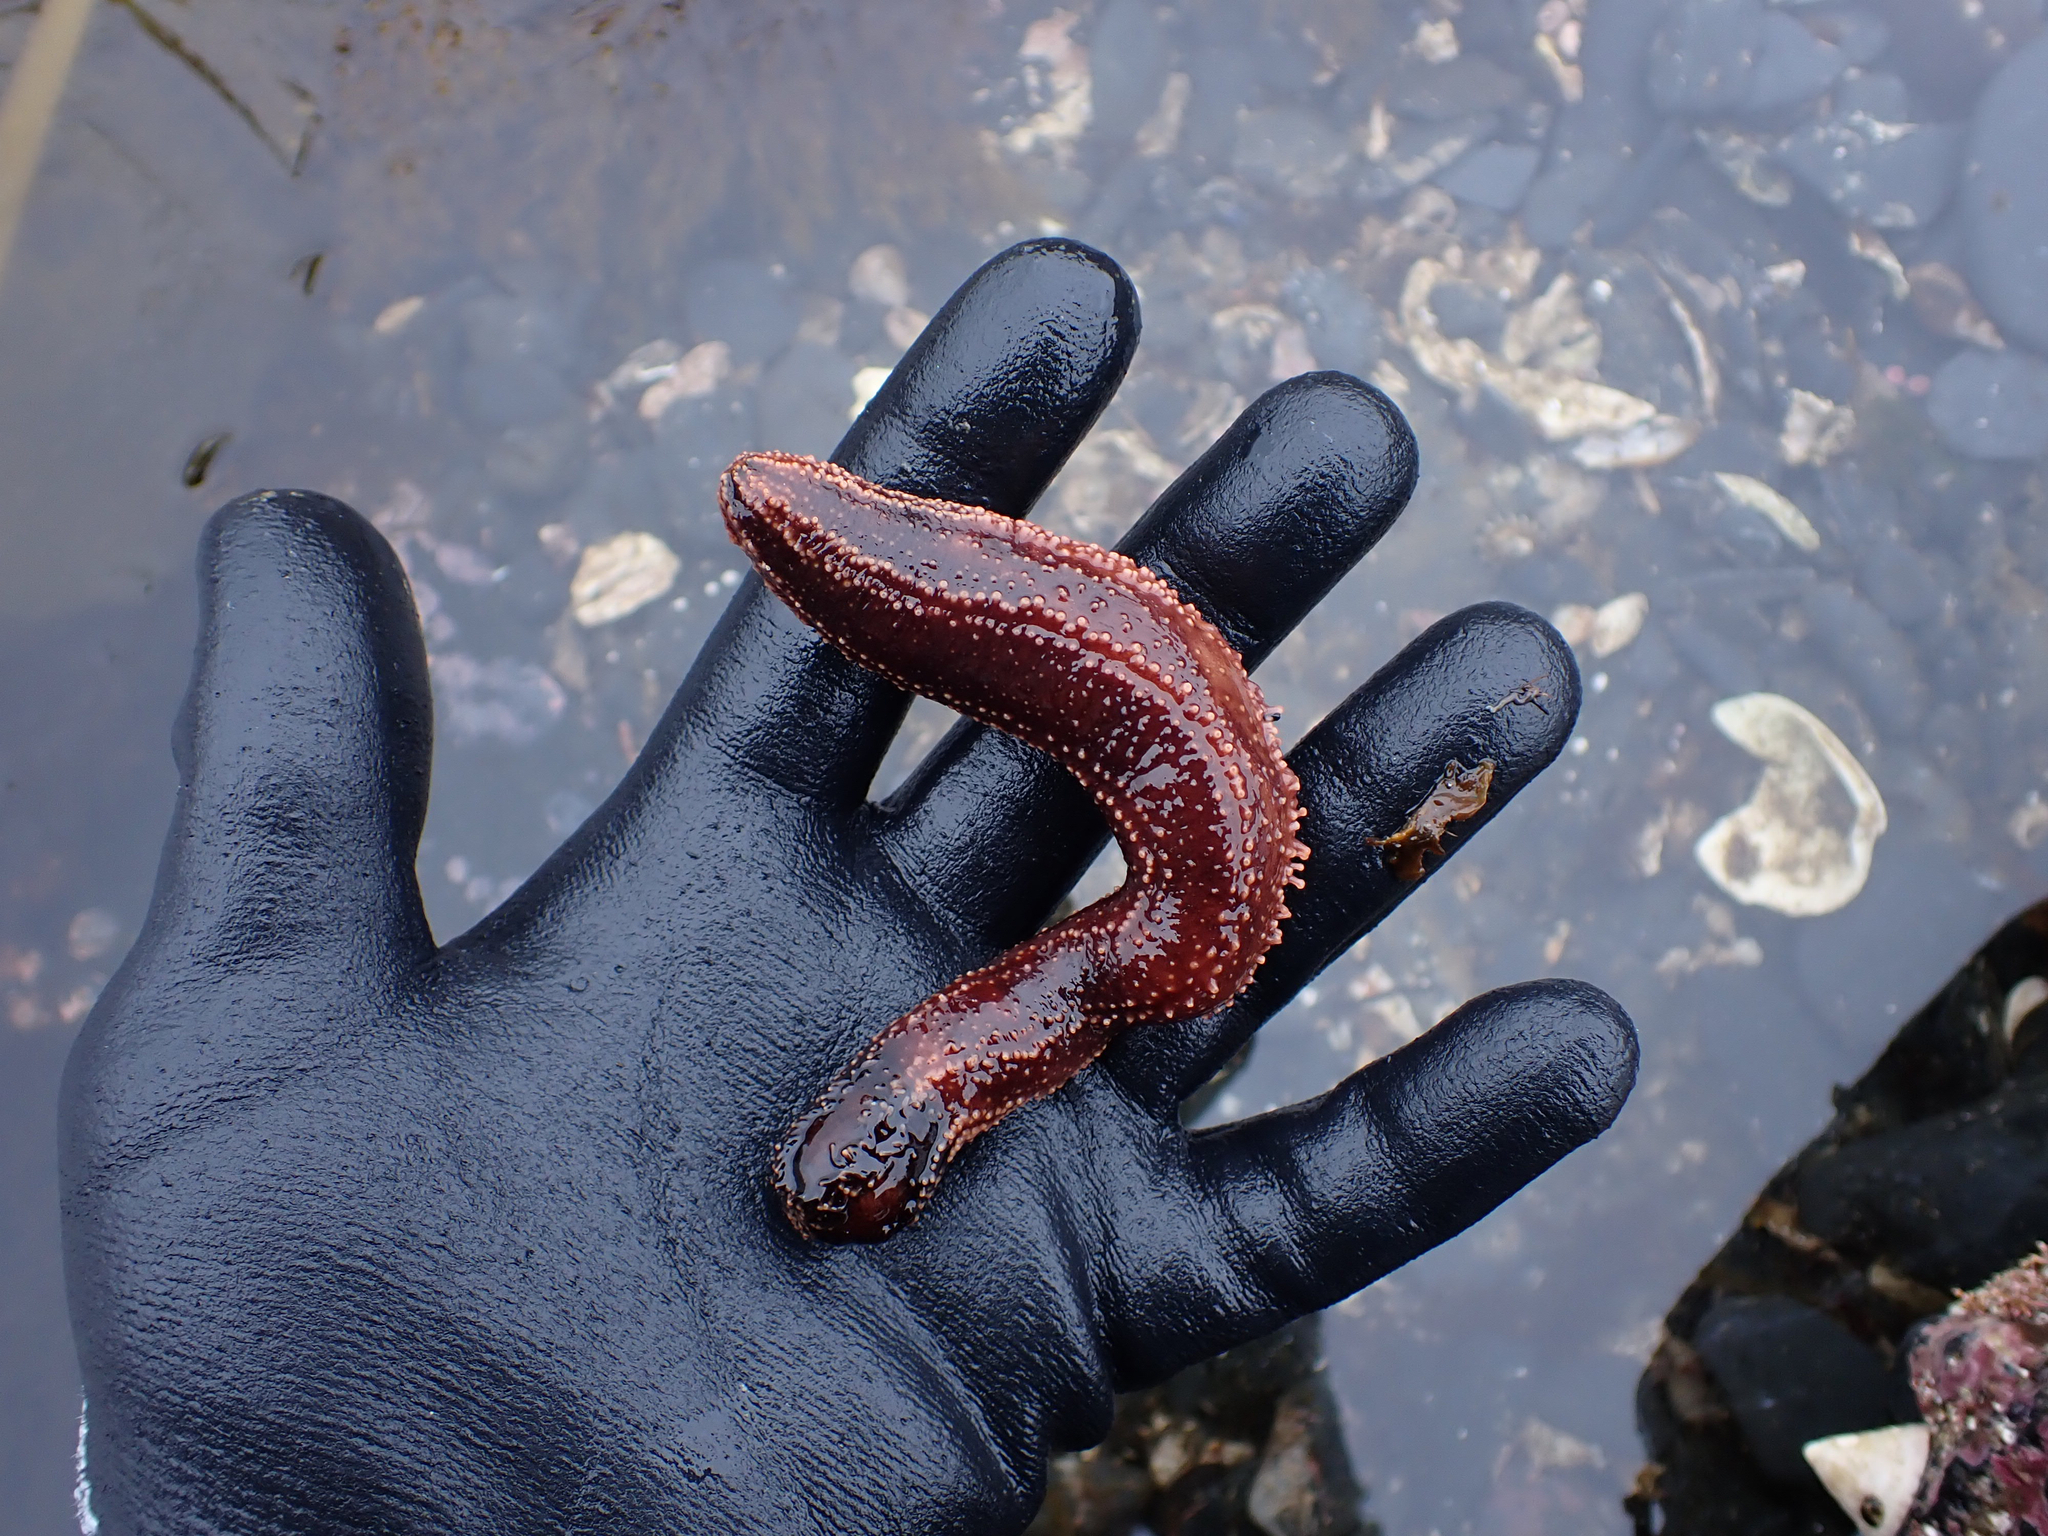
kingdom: Animalia
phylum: Echinodermata
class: Holothuroidea
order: Dendrochirotida
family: Cucumariidae
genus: Cucumaria
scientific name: Cucumaria miniata
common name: Orange sea cucumber
